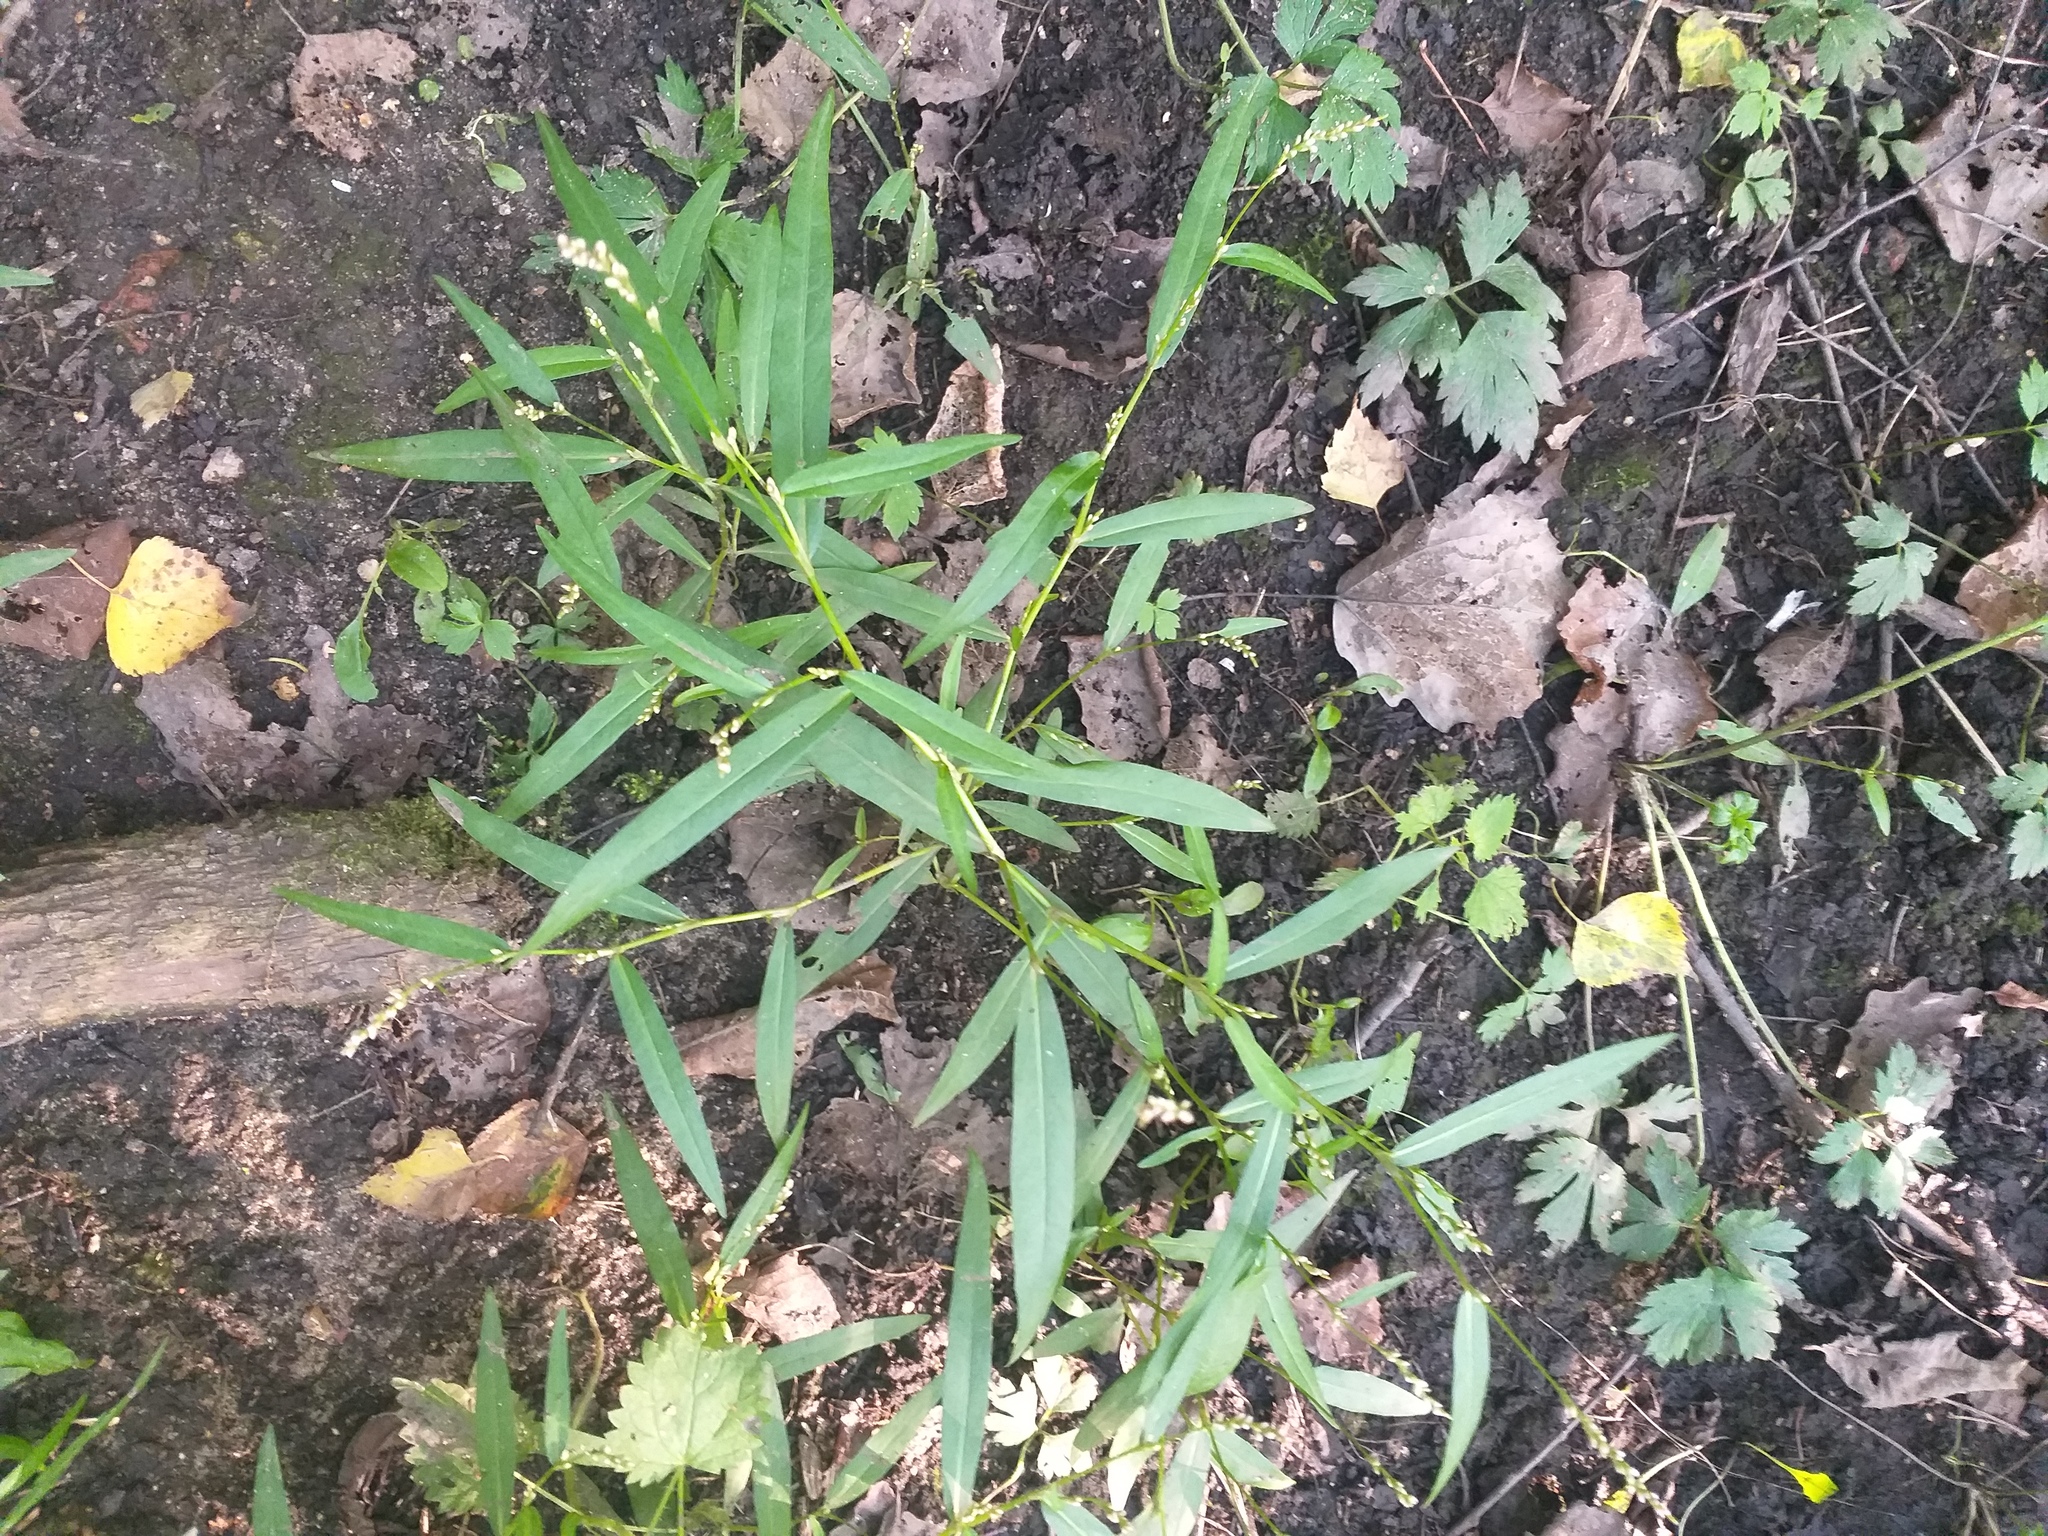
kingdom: Plantae
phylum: Tracheophyta
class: Magnoliopsida
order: Caryophyllales
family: Polygonaceae
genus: Persicaria
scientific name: Persicaria minor
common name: Small water-pepper
